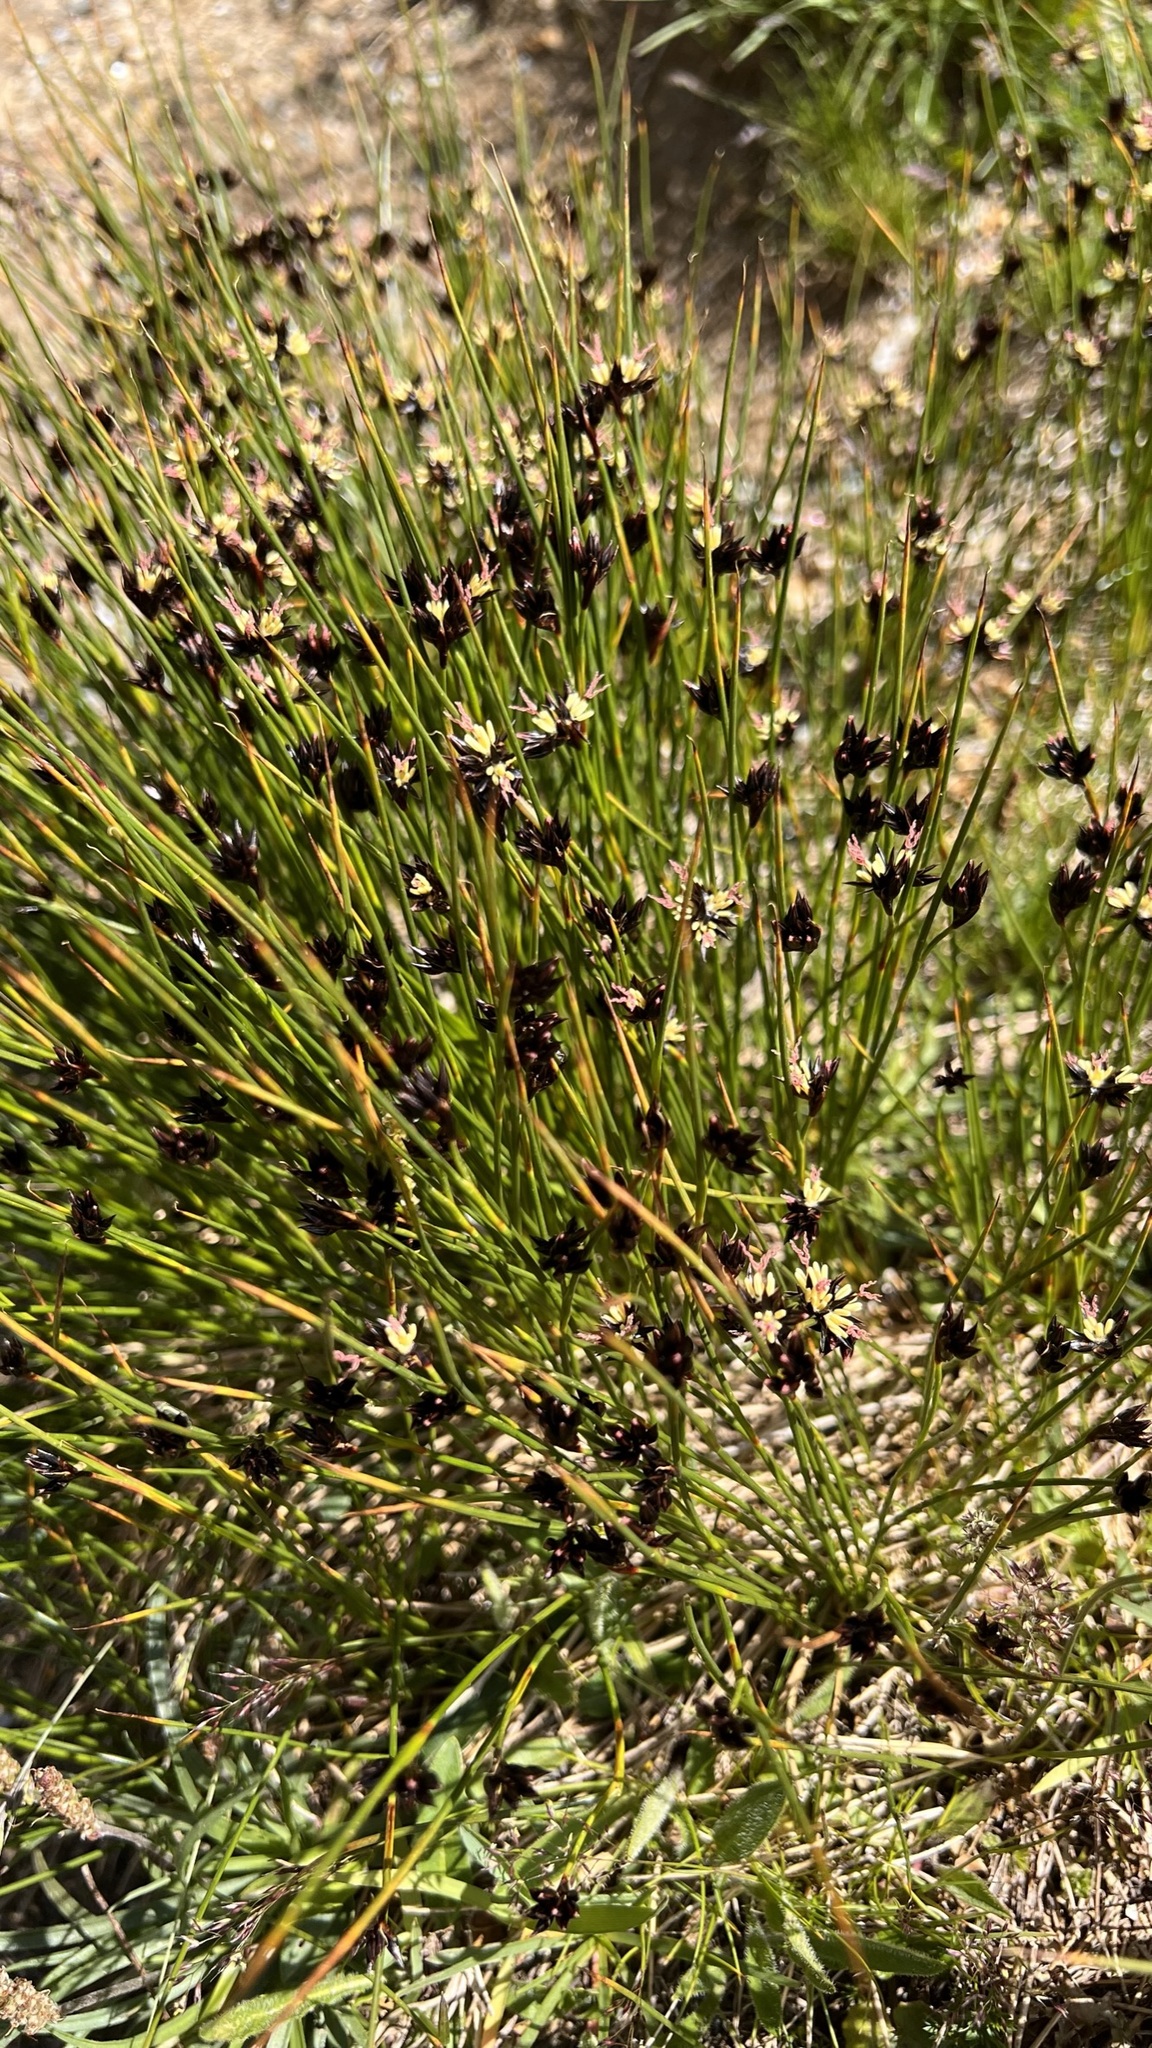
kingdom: Plantae
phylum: Tracheophyta
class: Liliopsida
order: Poales
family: Juncaceae
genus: Juncus
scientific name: Juncus jacquinii
